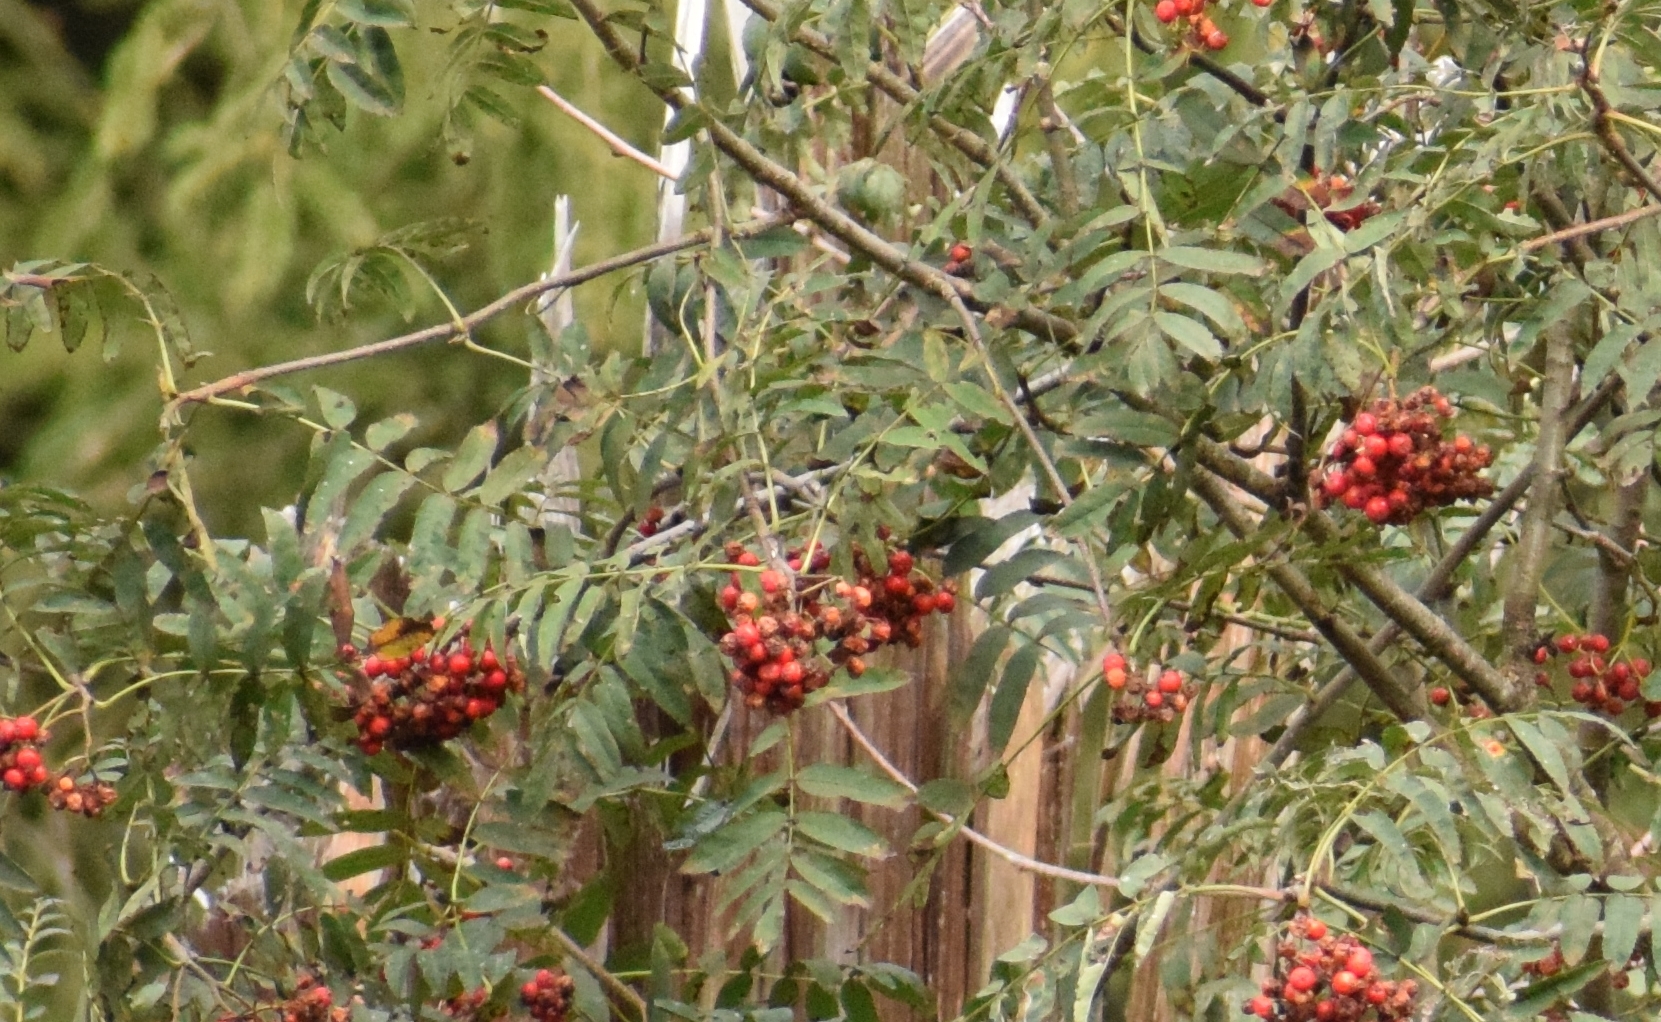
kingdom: Plantae
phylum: Tracheophyta
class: Magnoliopsida
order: Rosales
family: Rosaceae
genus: Sorbus
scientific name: Sorbus aucuparia
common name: Rowan
